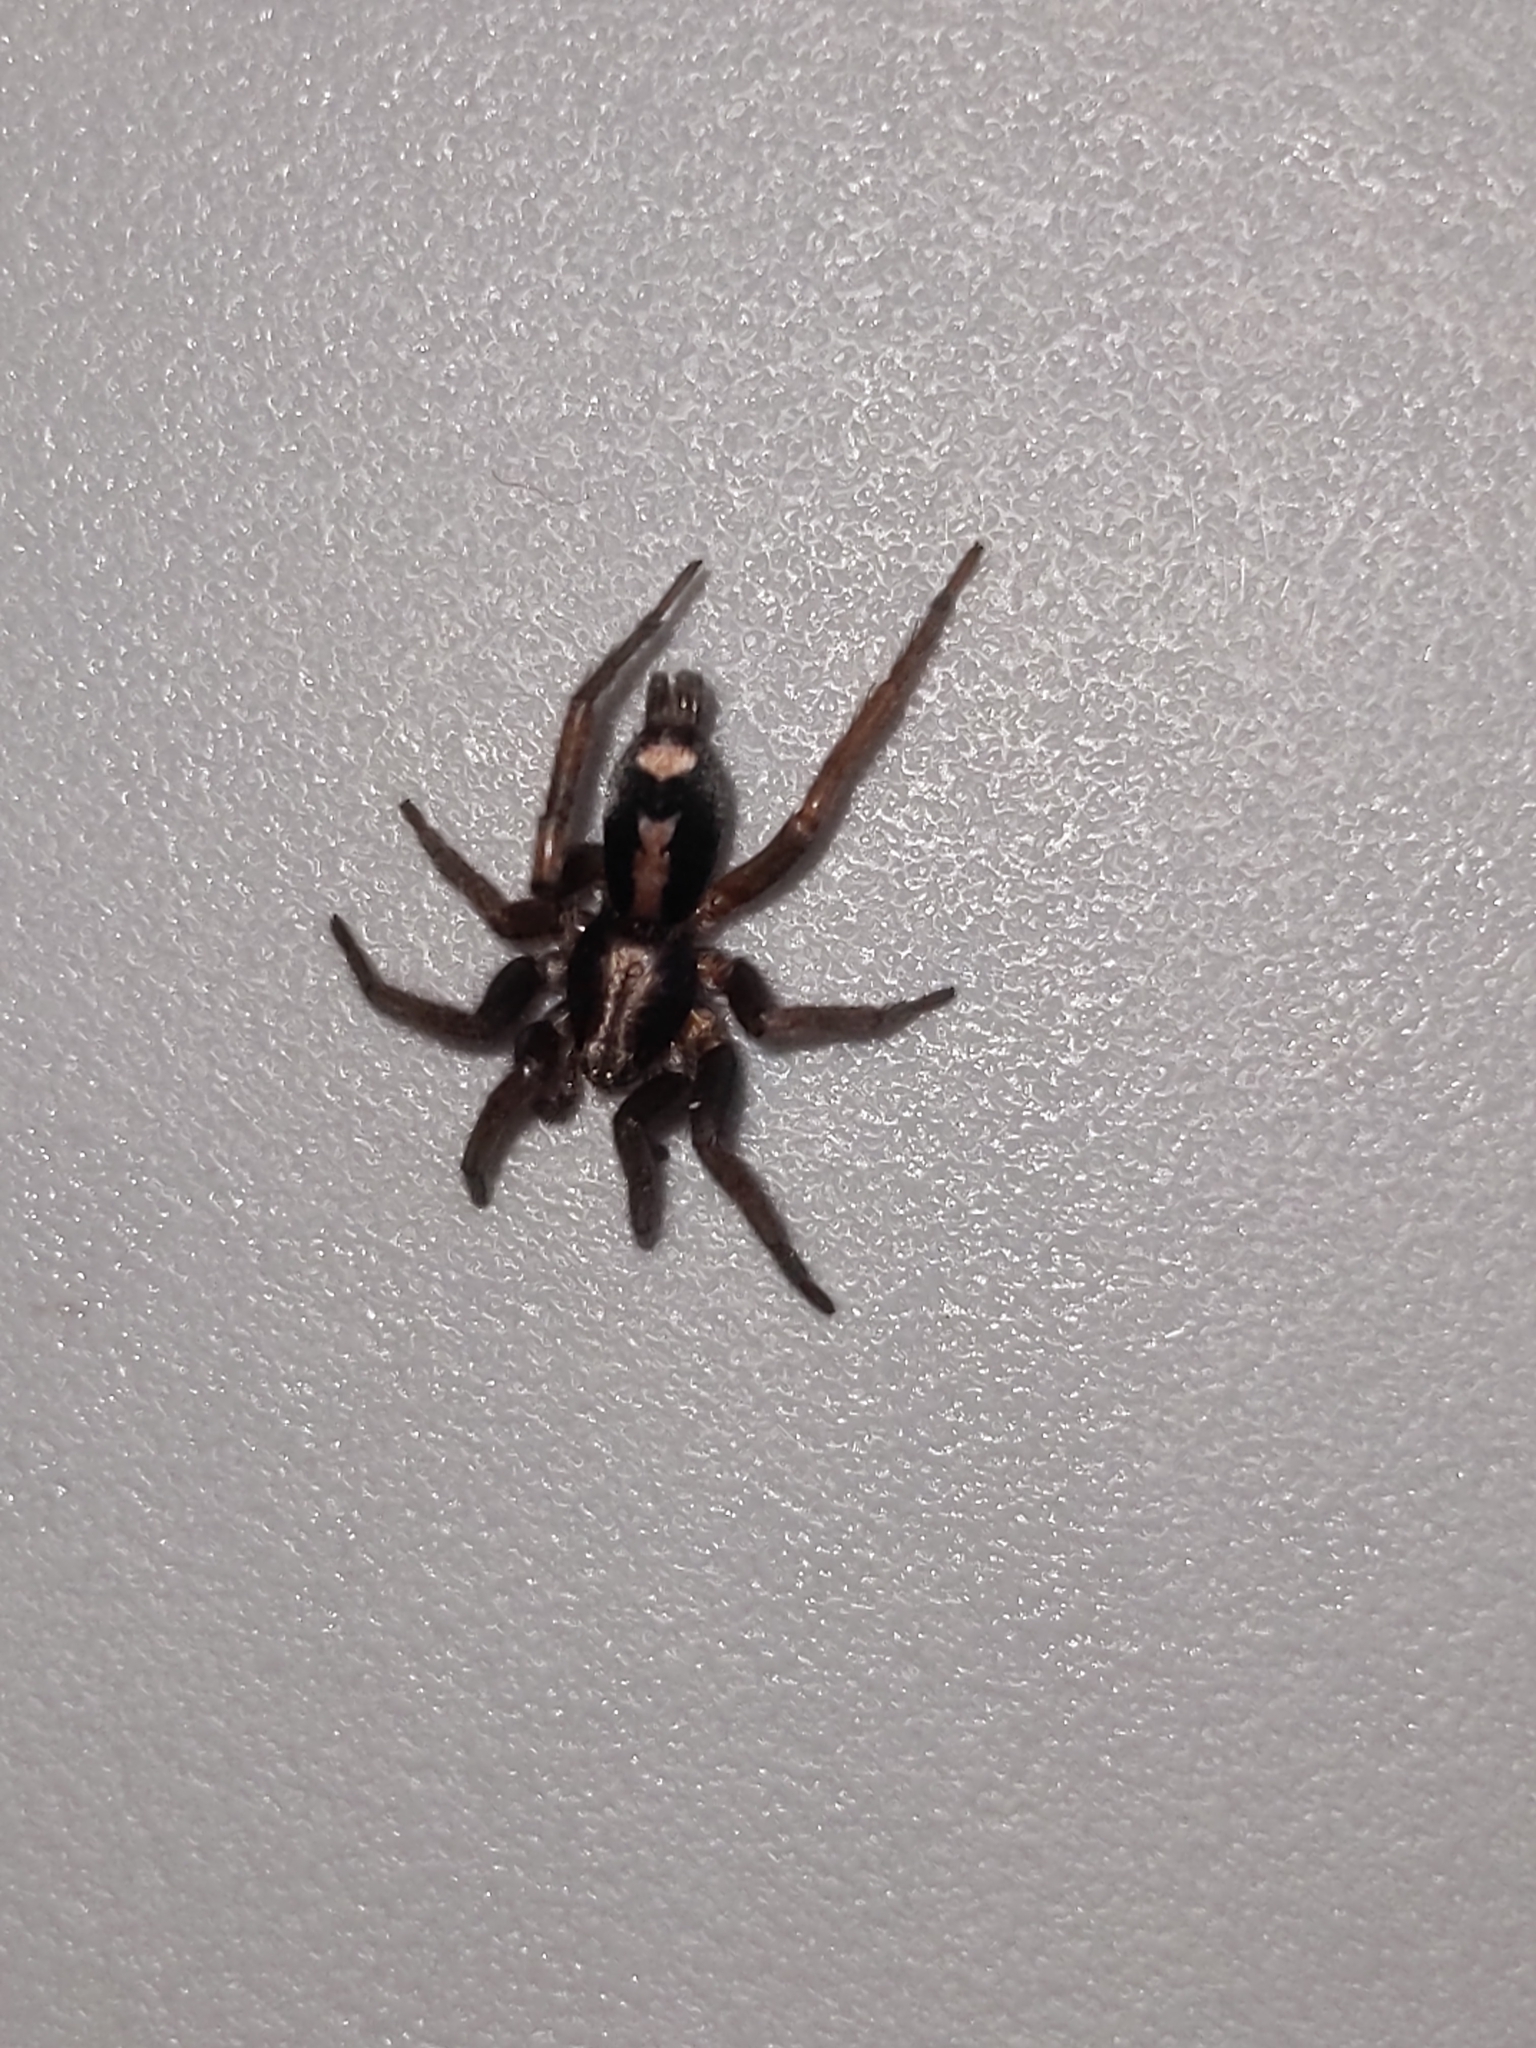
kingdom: Animalia
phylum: Arthropoda
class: Arachnida
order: Araneae
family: Gnaphosidae
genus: Herpyllus
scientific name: Herpyllus ecclesiasticus
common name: Eastern parson spider
